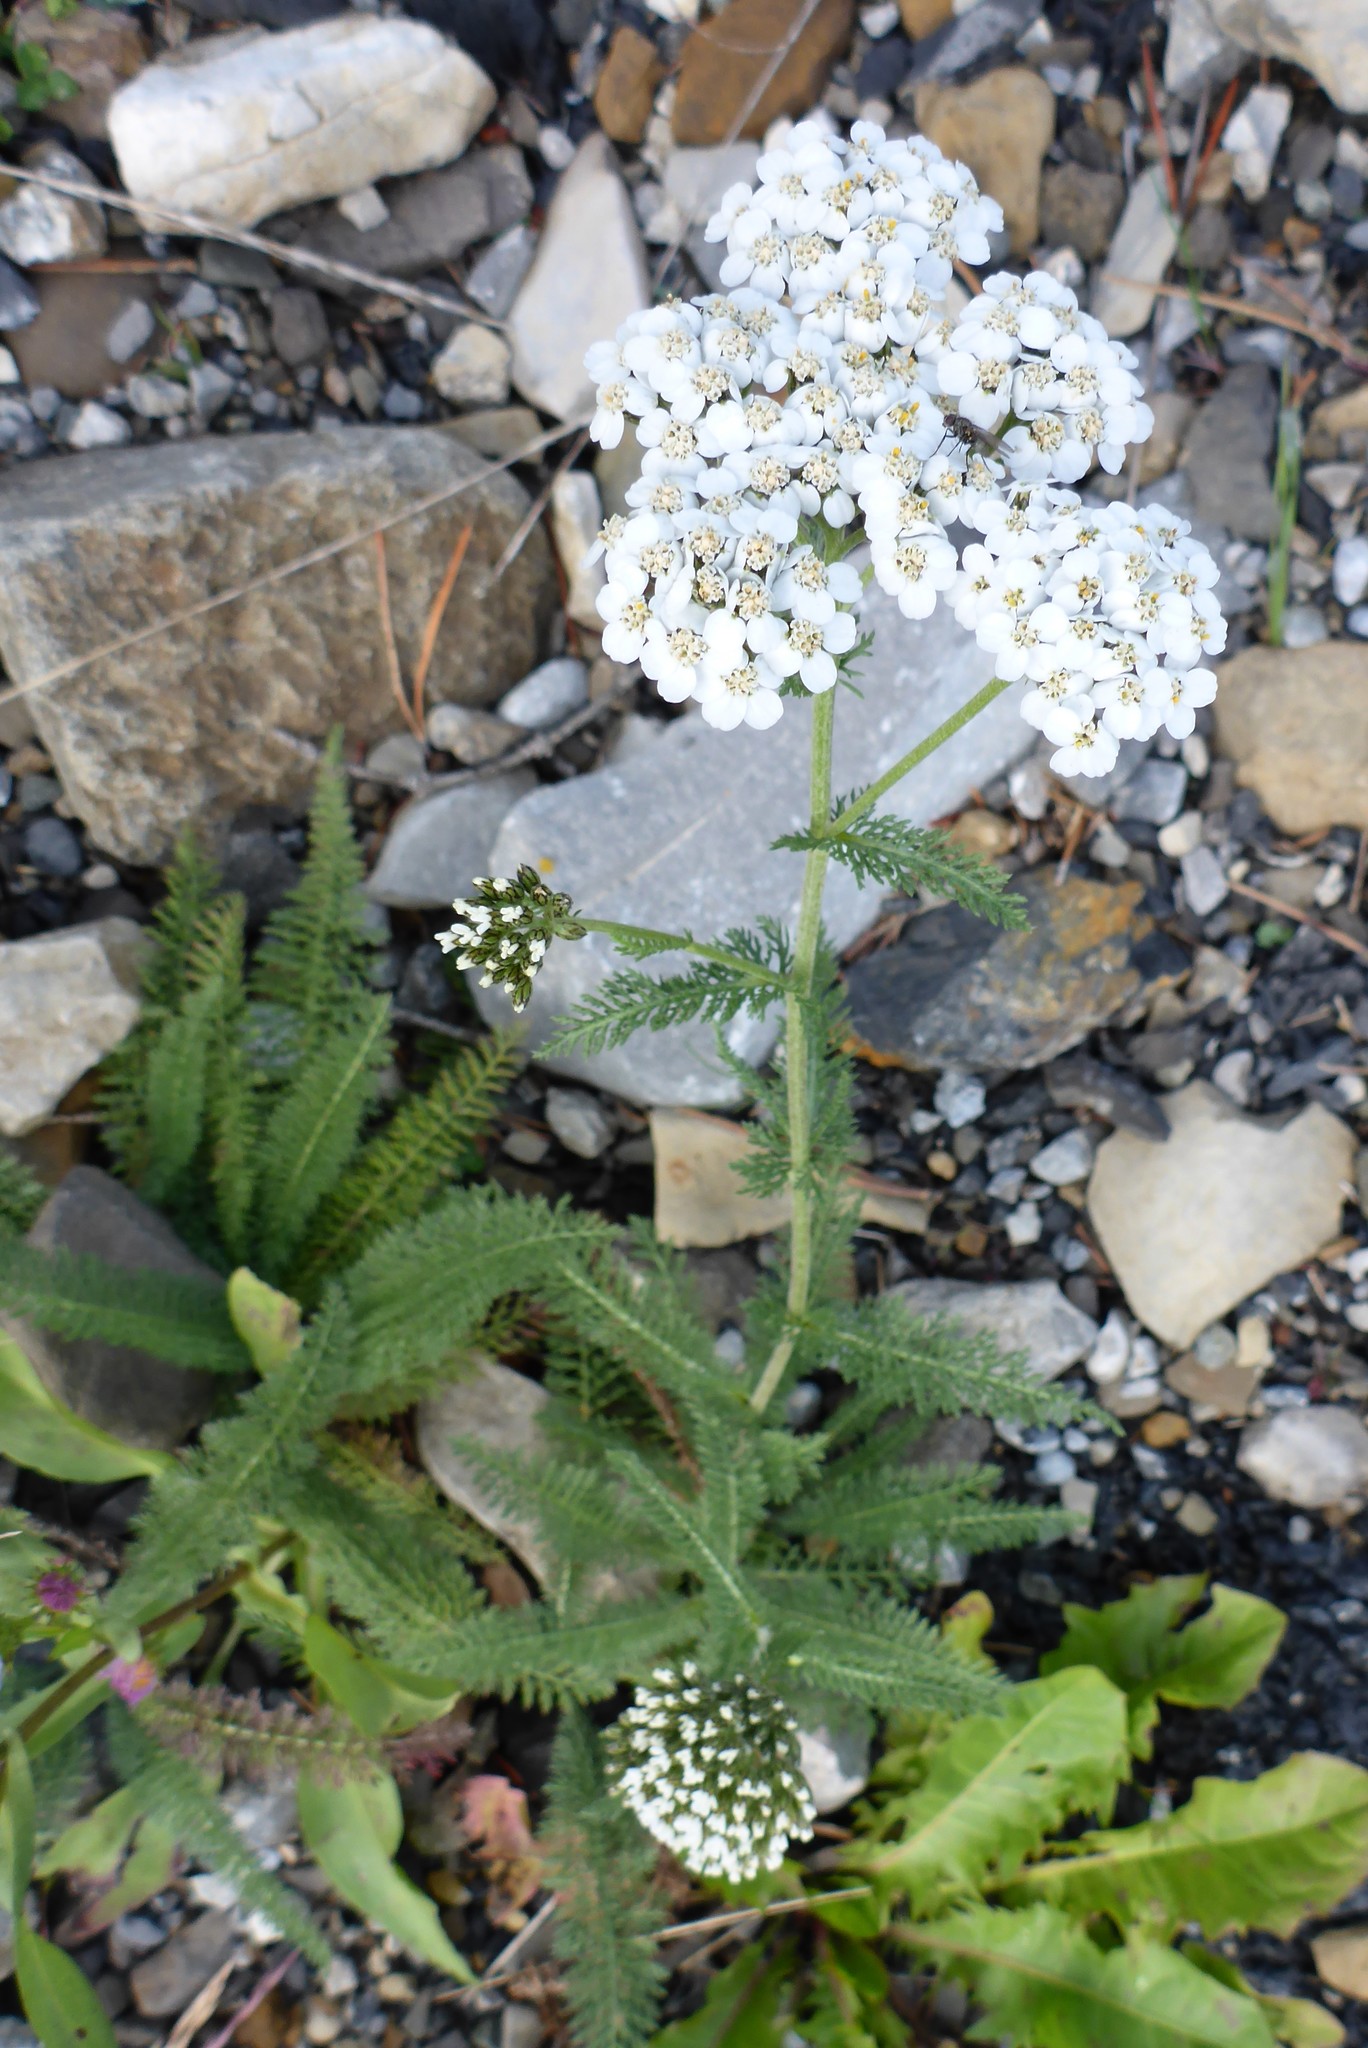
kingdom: Plantae
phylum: Tracheophyta
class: Magnoliopsida
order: Asterales
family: Asteraceae
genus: Achillea
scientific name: Achillea millefolium
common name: Yarrow
